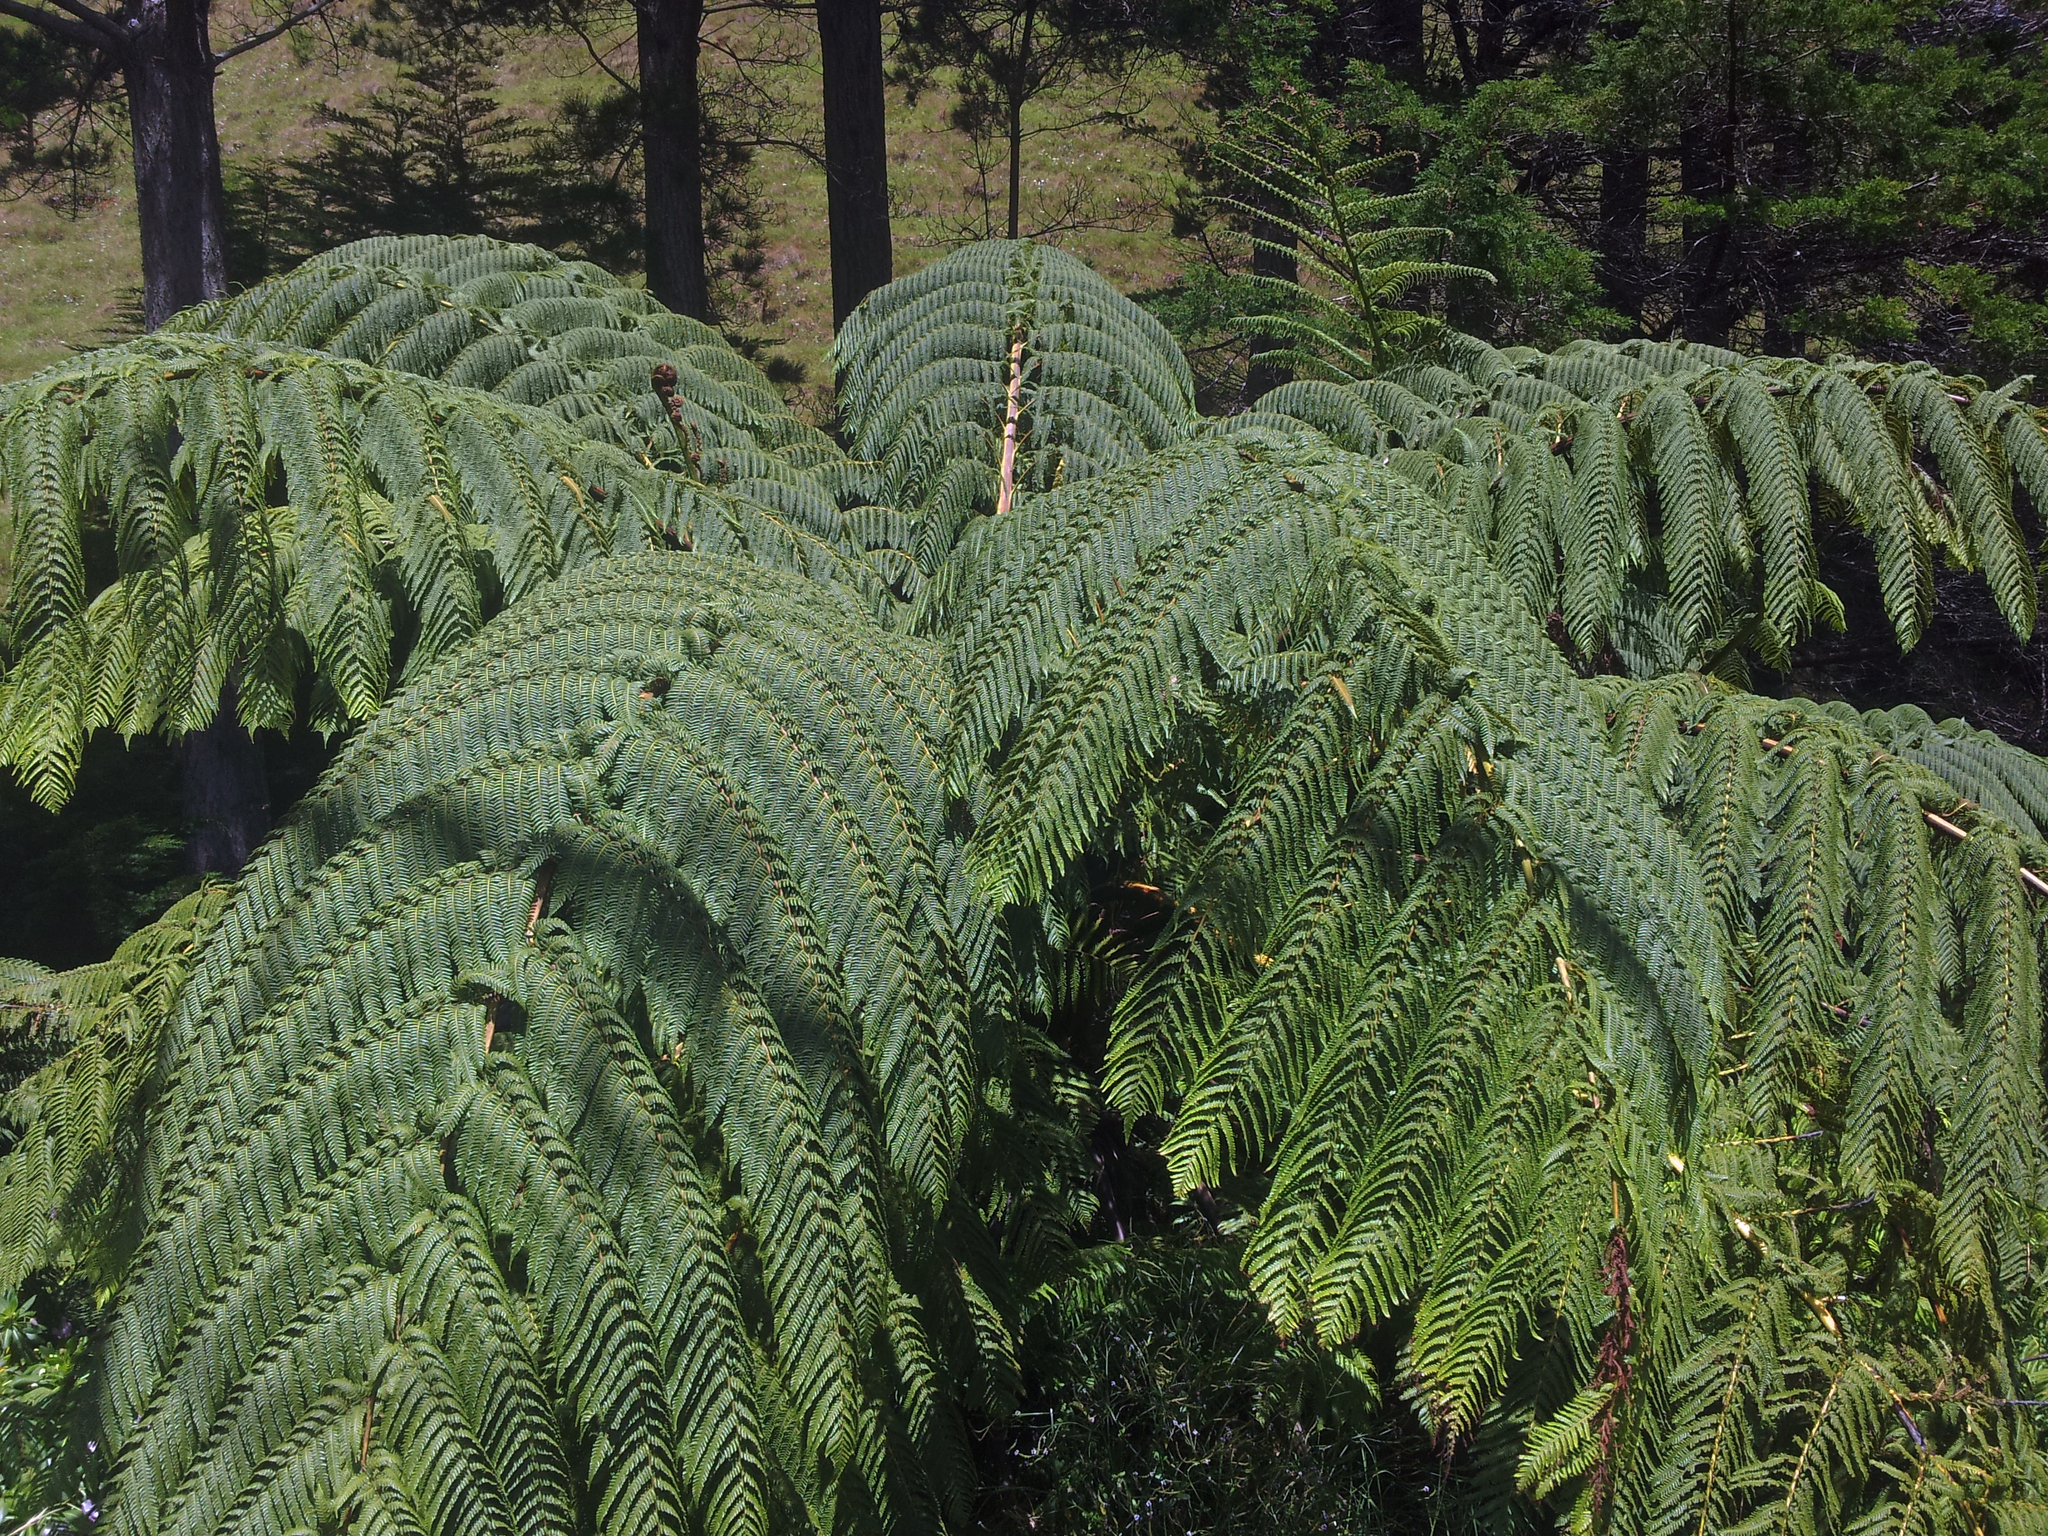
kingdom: Plantae
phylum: Tracheophyta
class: Polypodiopsida
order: Cyatheales
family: Cyatheaceae
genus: Sphaeropteris
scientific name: Sphaeropteris medullaris
